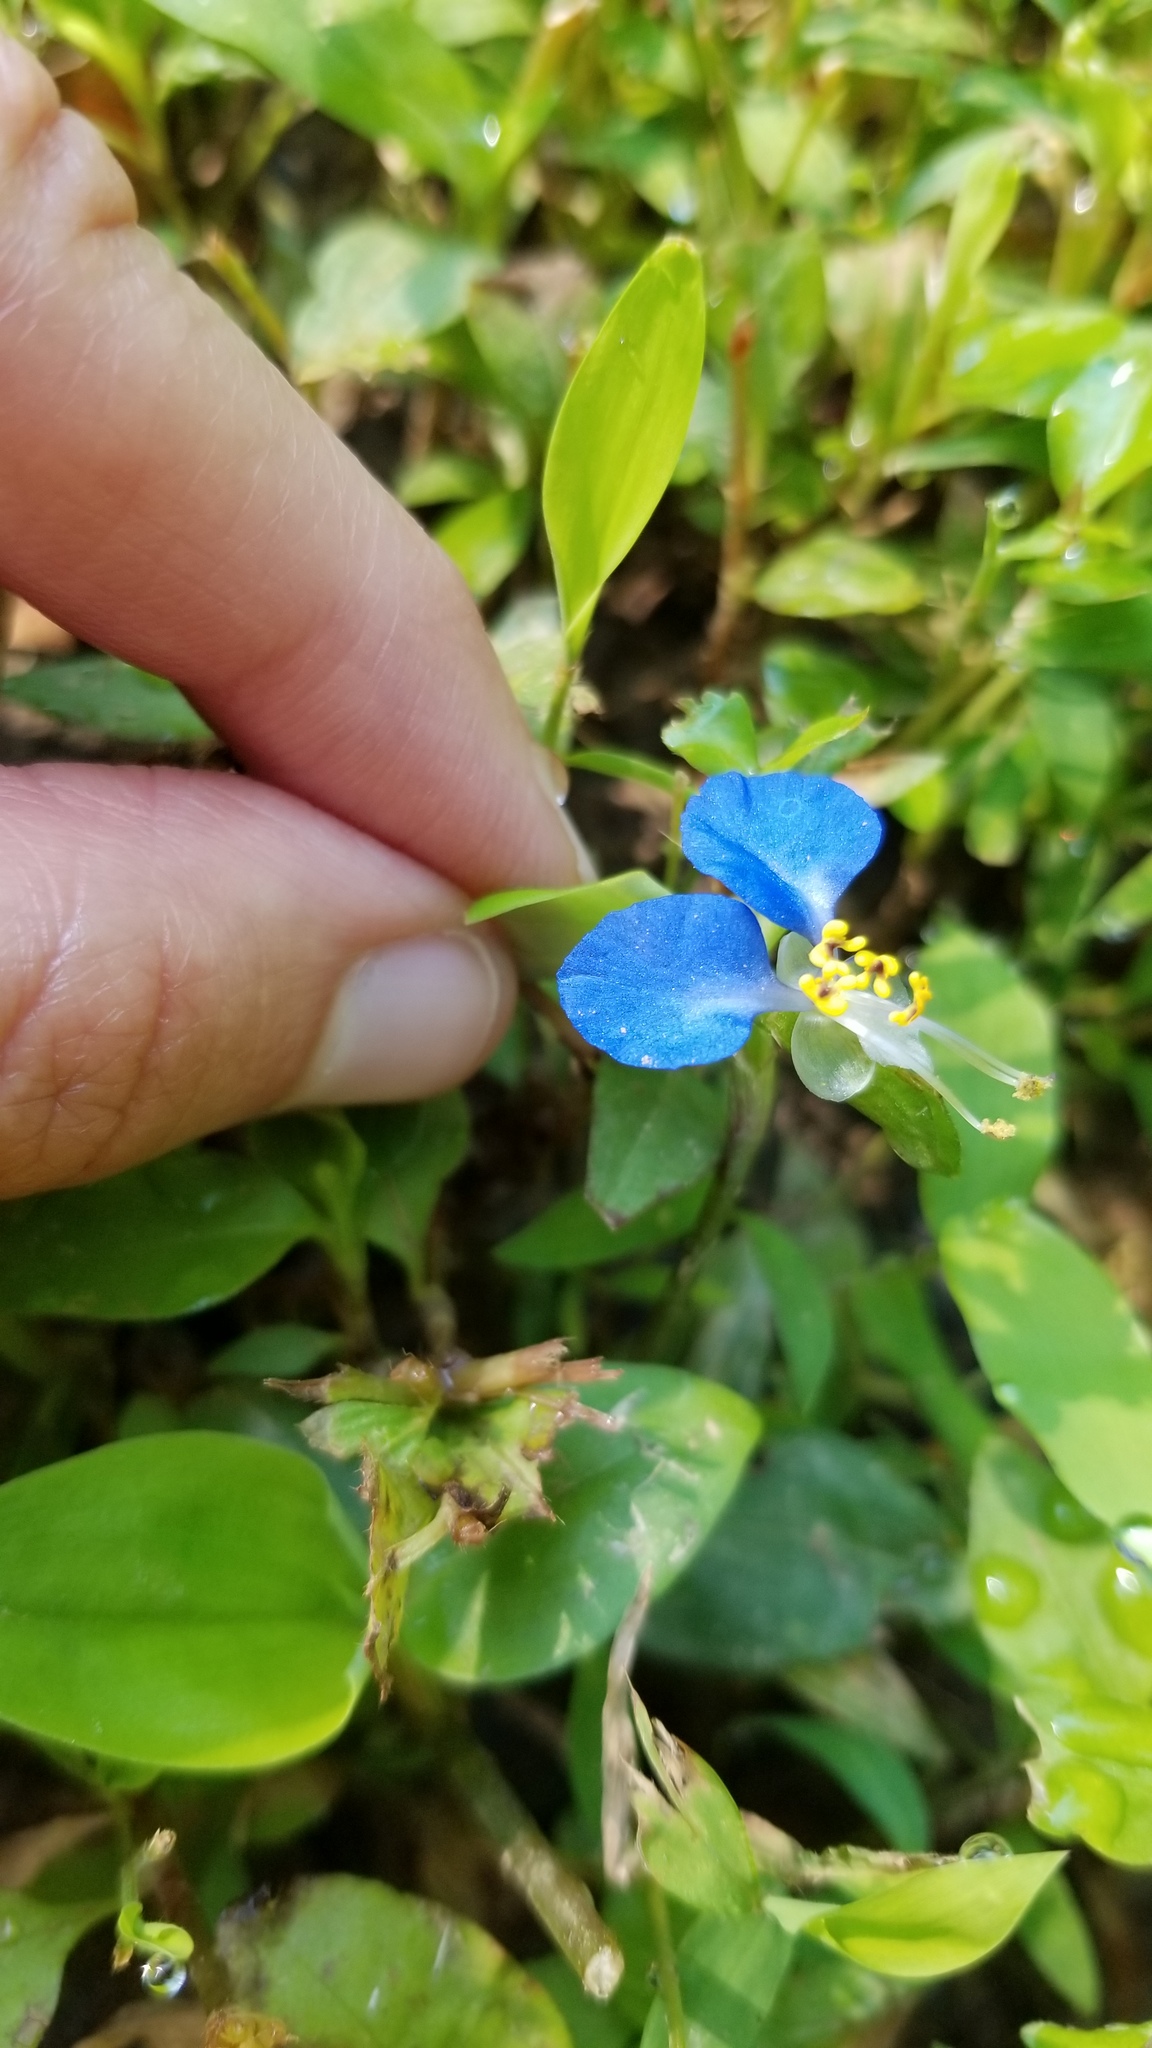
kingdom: Plantae
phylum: Tracheophyta
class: Liliopsida
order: Commelinales
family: Commelinaceae
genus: Commelina
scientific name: Commelina communis
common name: Asiatic dayflower
